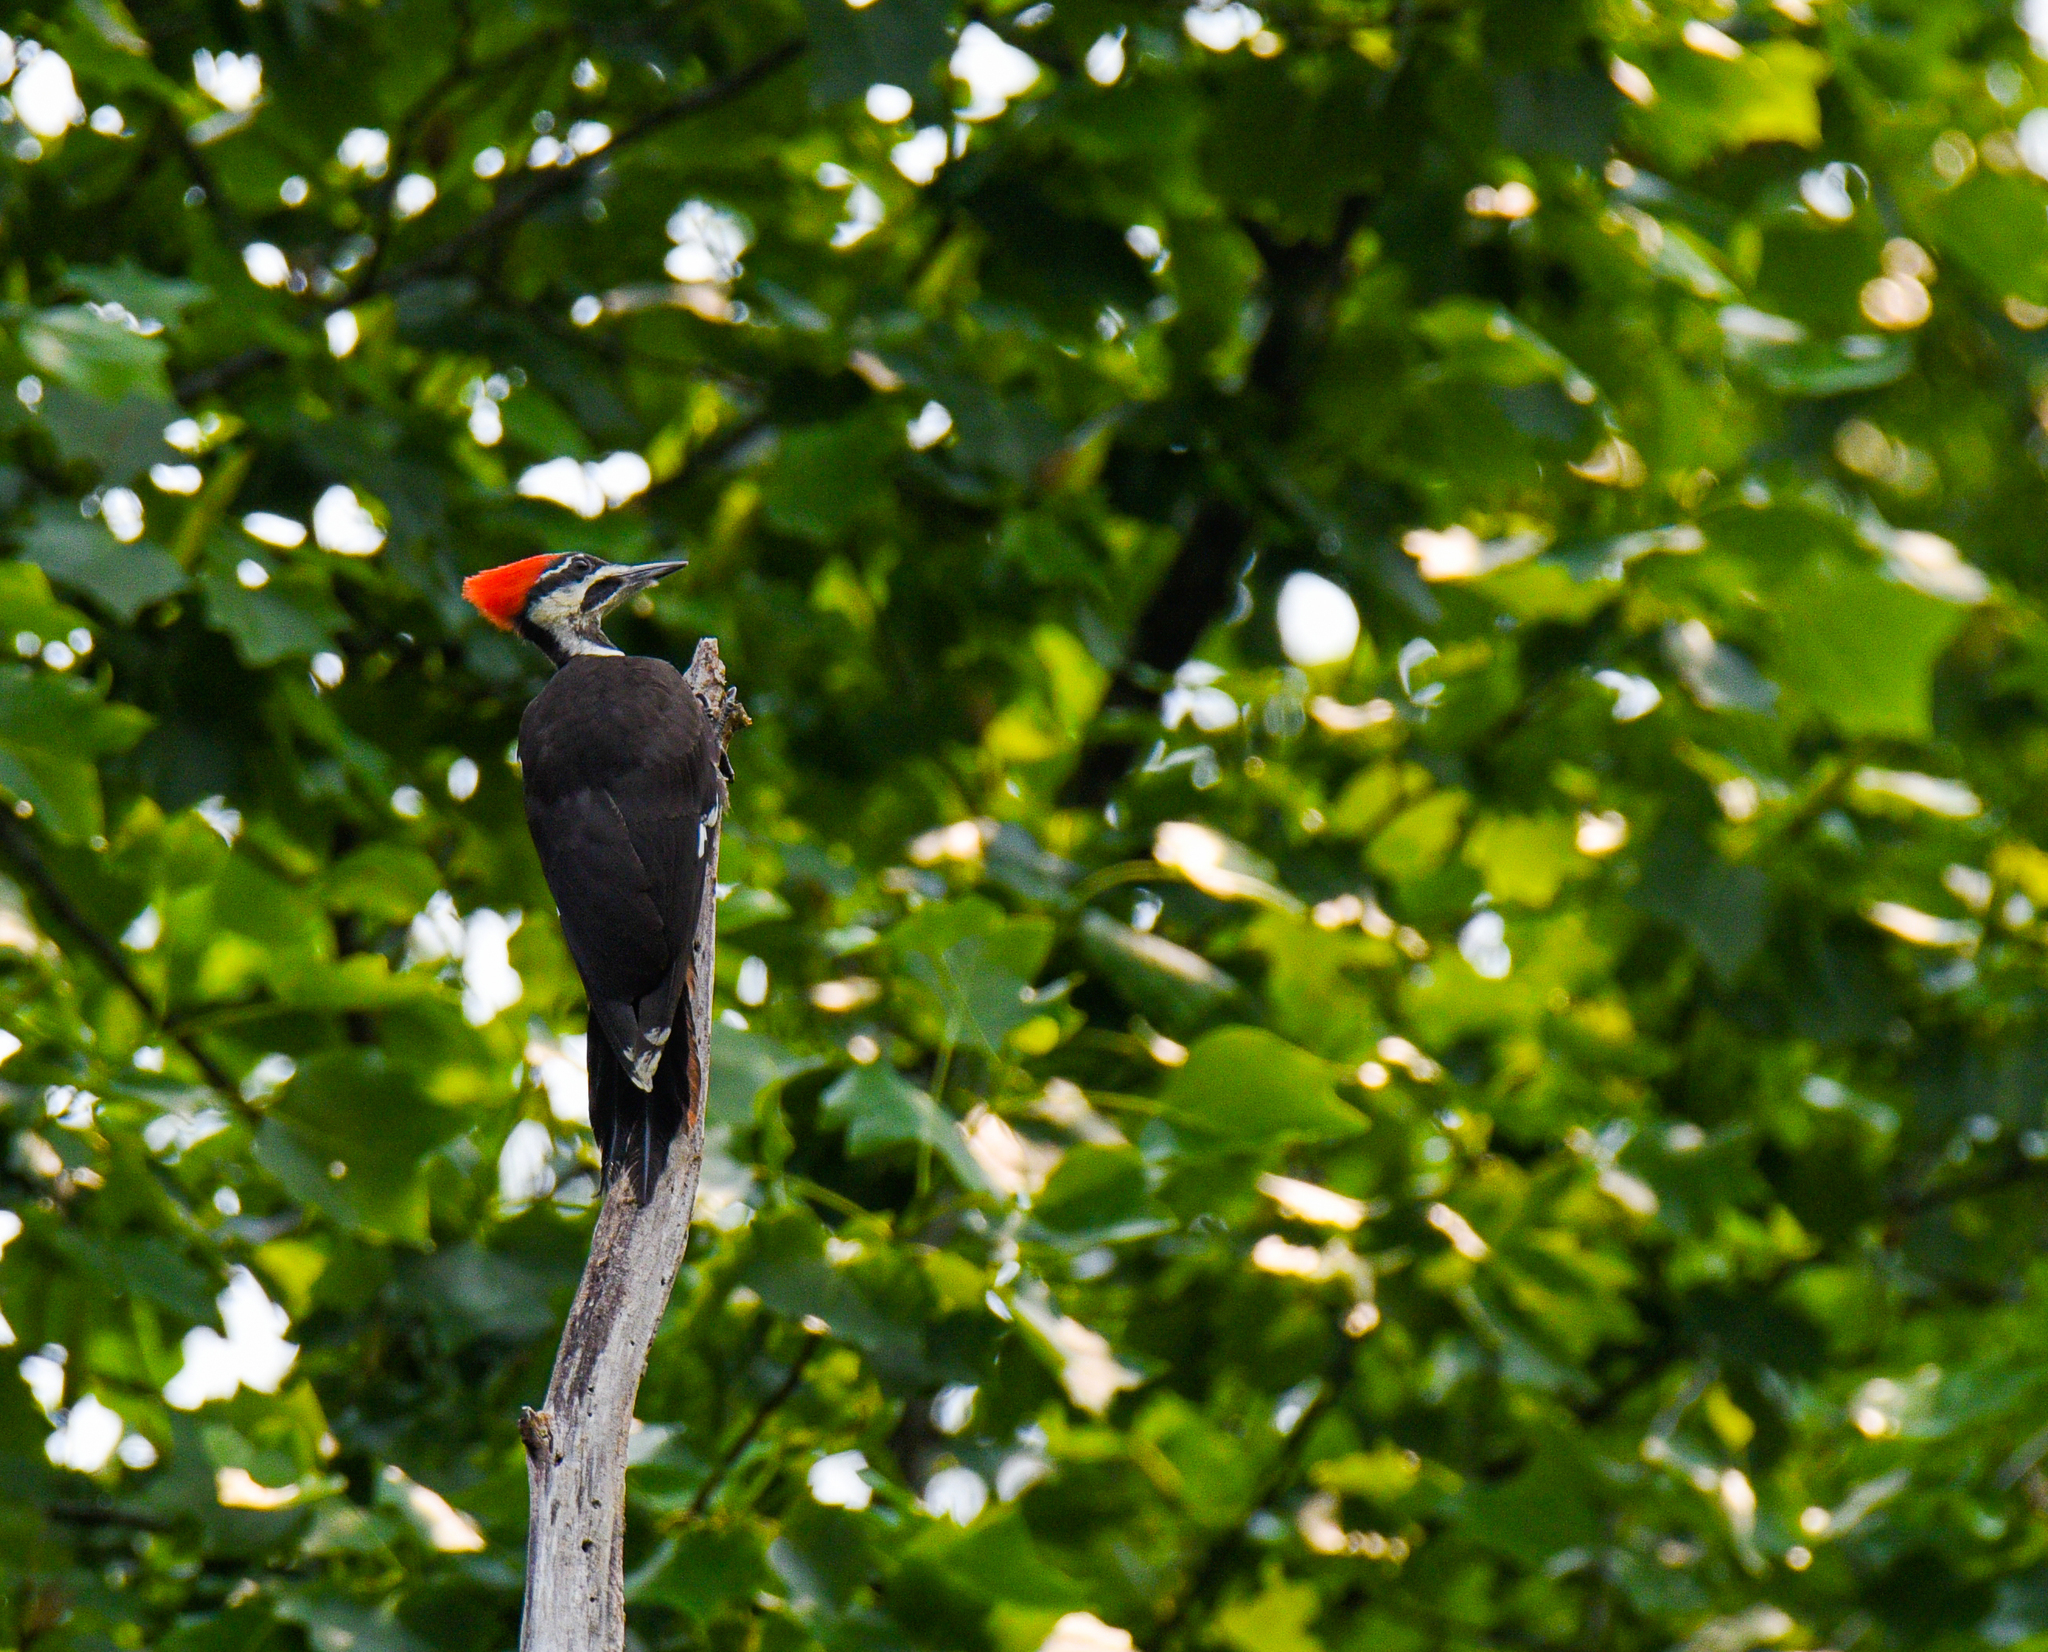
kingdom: Animalia
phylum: Chordata
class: Aves
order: Piciformes
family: Picidae
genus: Dryocopus
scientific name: Dryocopus pileatus
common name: Pileated woodpecker
